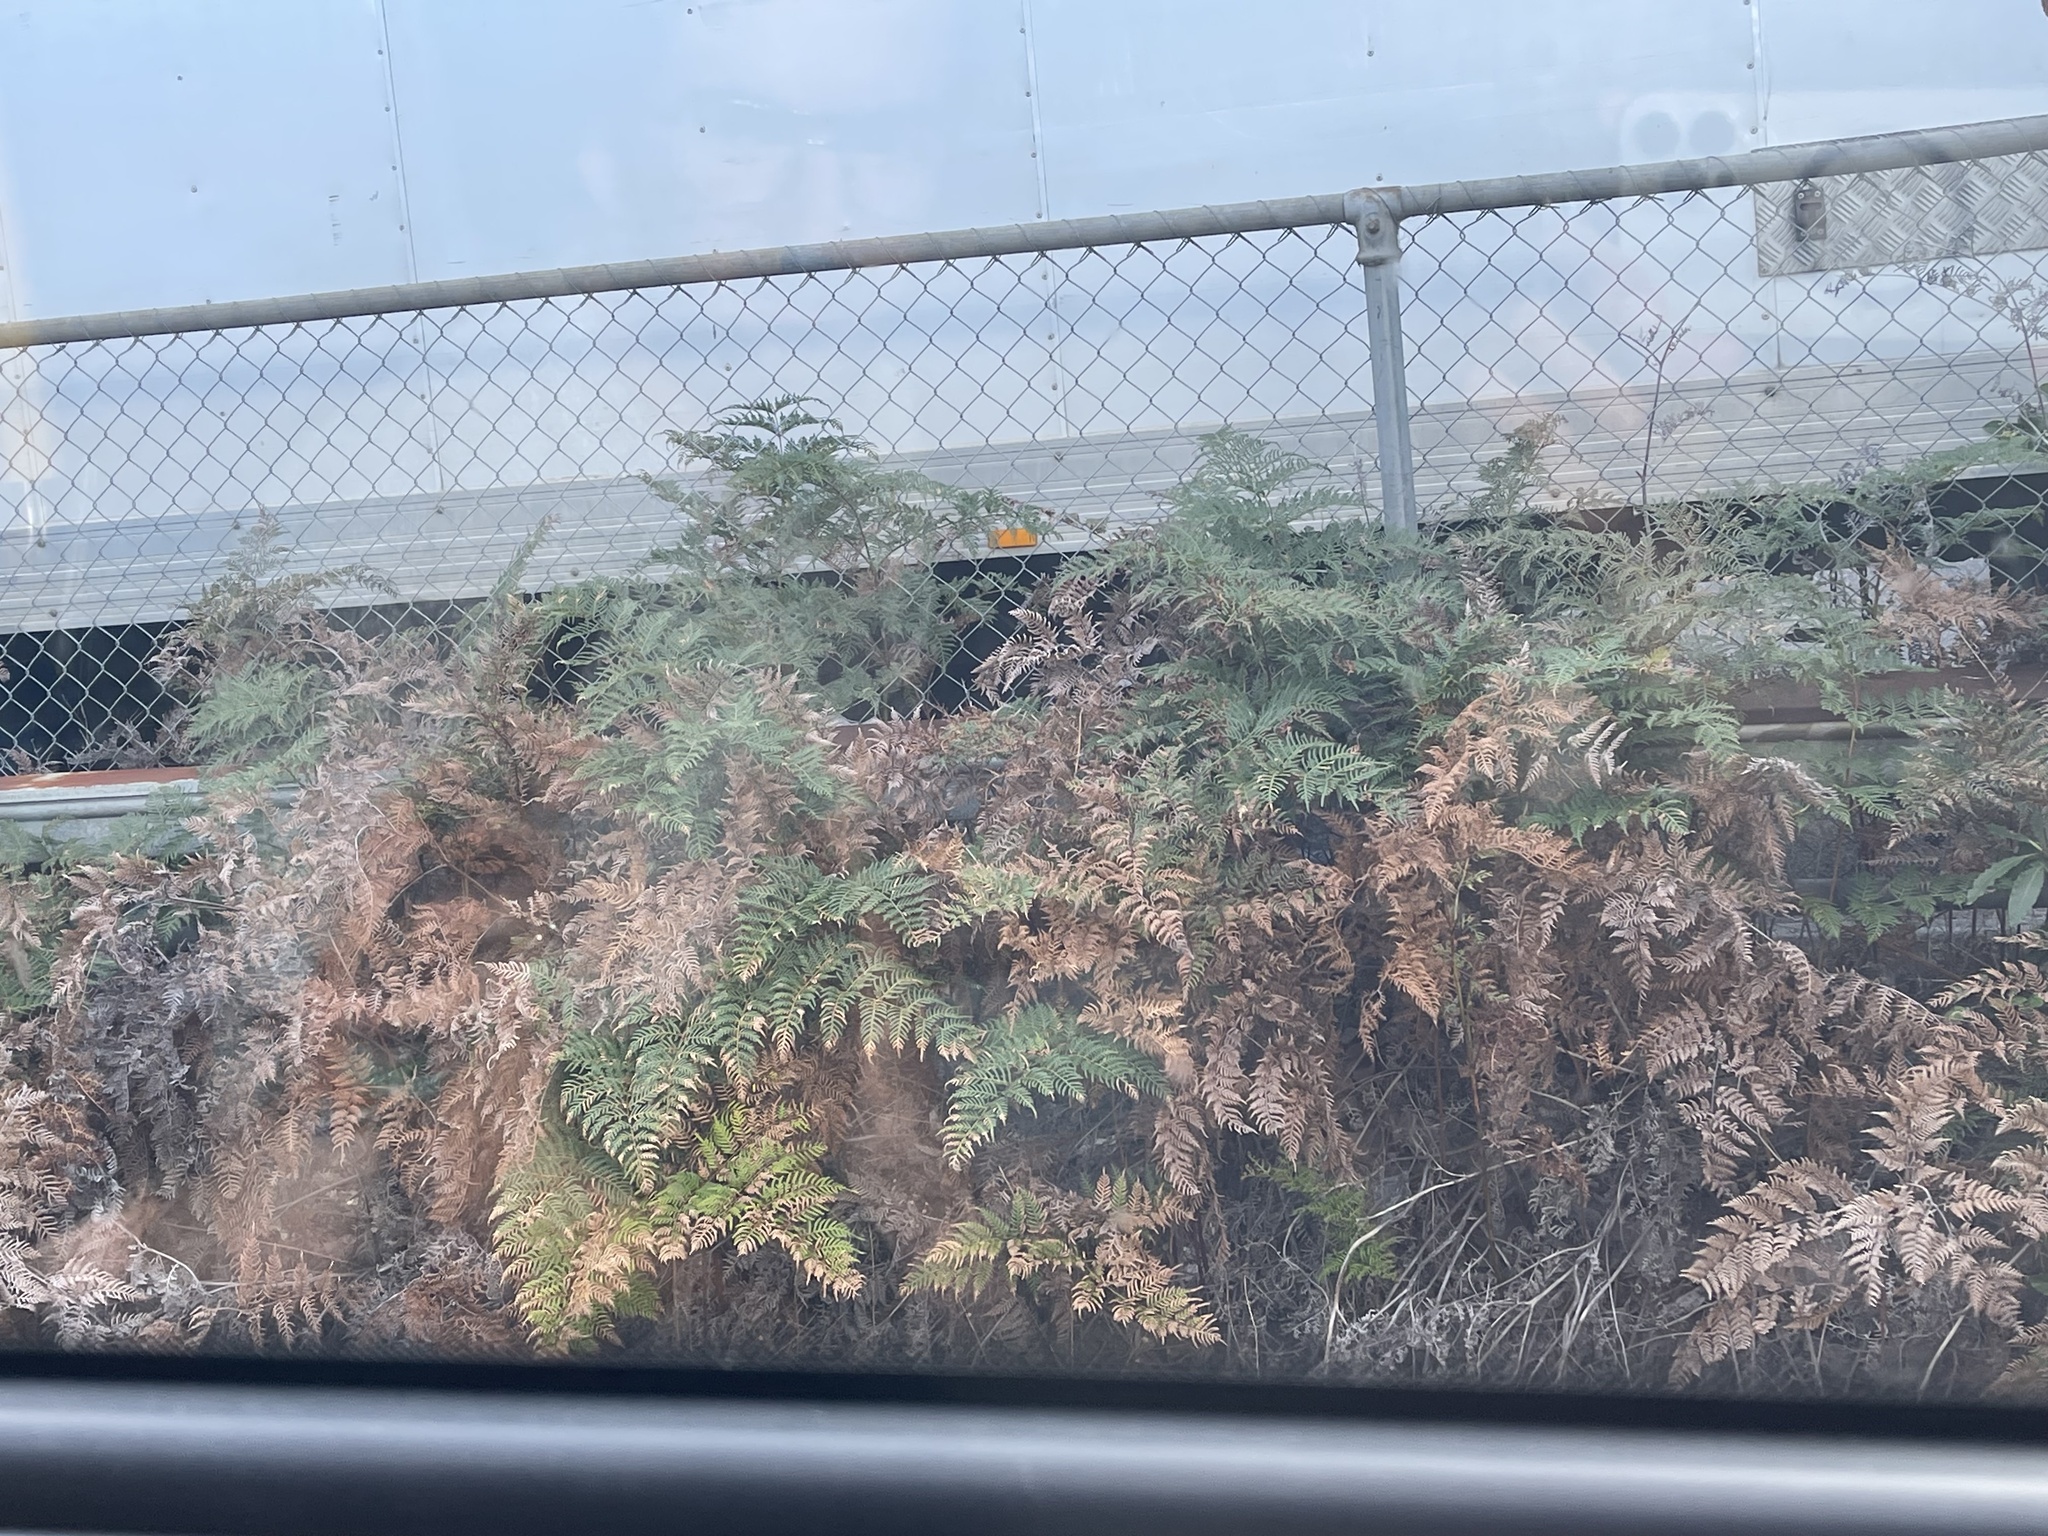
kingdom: Plantae
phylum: Tracheophyta
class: Polypodiopsida
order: Polypodiales
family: Dennstaedtiaceae
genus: Pteridium
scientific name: Pteridium esculentum
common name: Bracken fern
